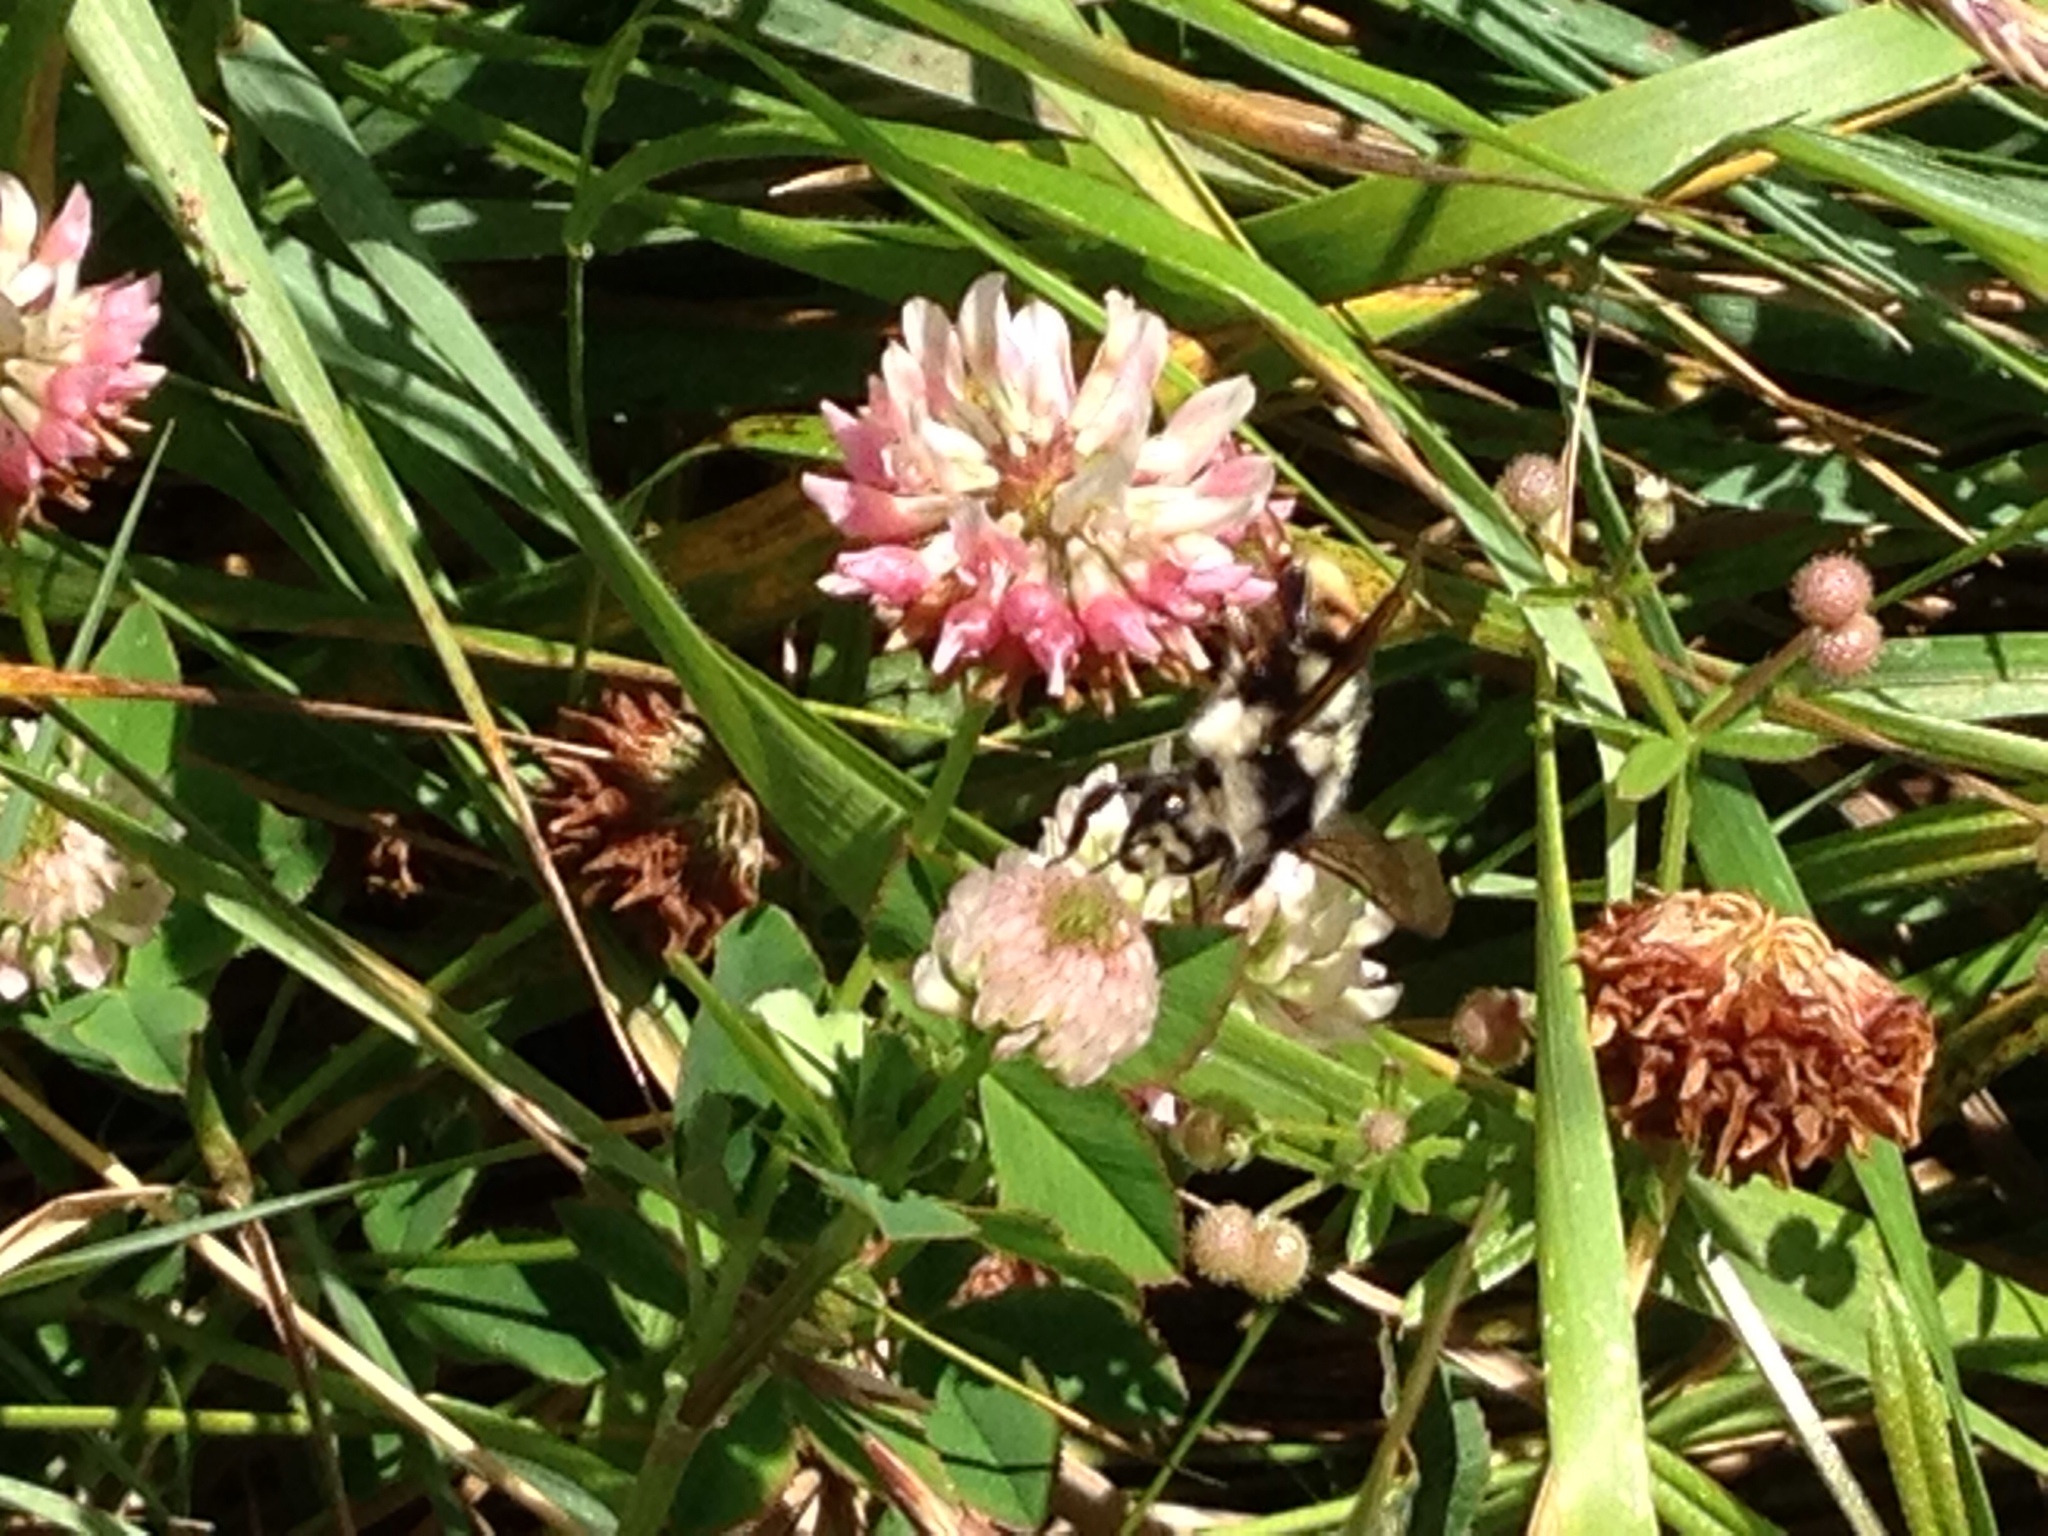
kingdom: Animalia
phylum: Arthropoda
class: Insecta
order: Hymenoptera
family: Apidae
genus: Bombus
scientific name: Bombus vancouverensis
